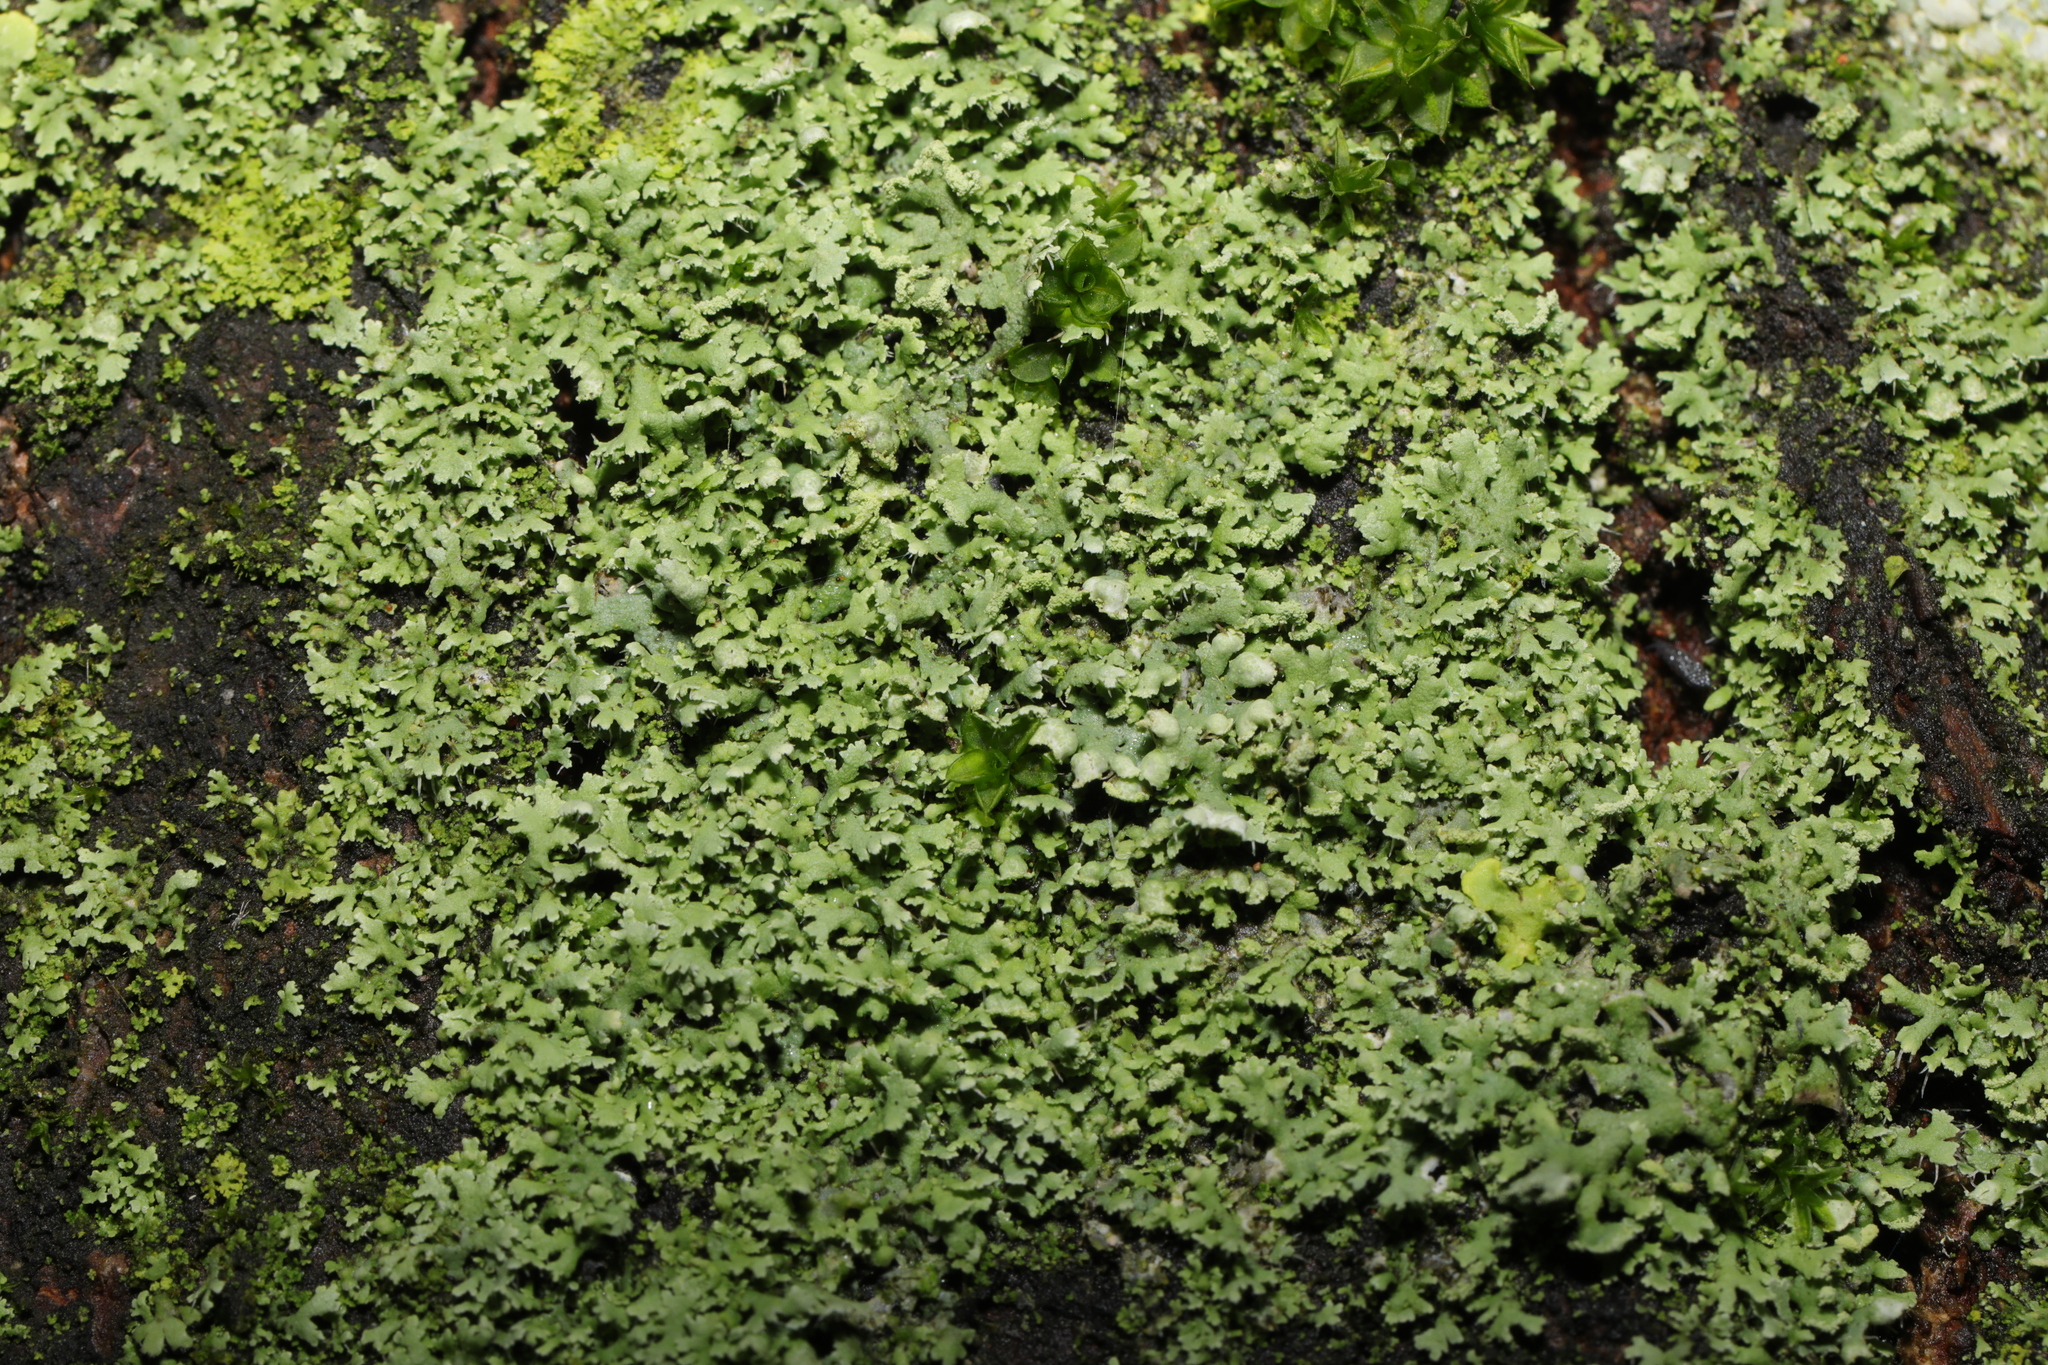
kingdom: Fungi
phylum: Ascomycota
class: Lecanoromycetes
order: Caliciales
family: Physciaceae
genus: Physcia
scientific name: Physcia tenella
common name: Fringed rosette lichen
